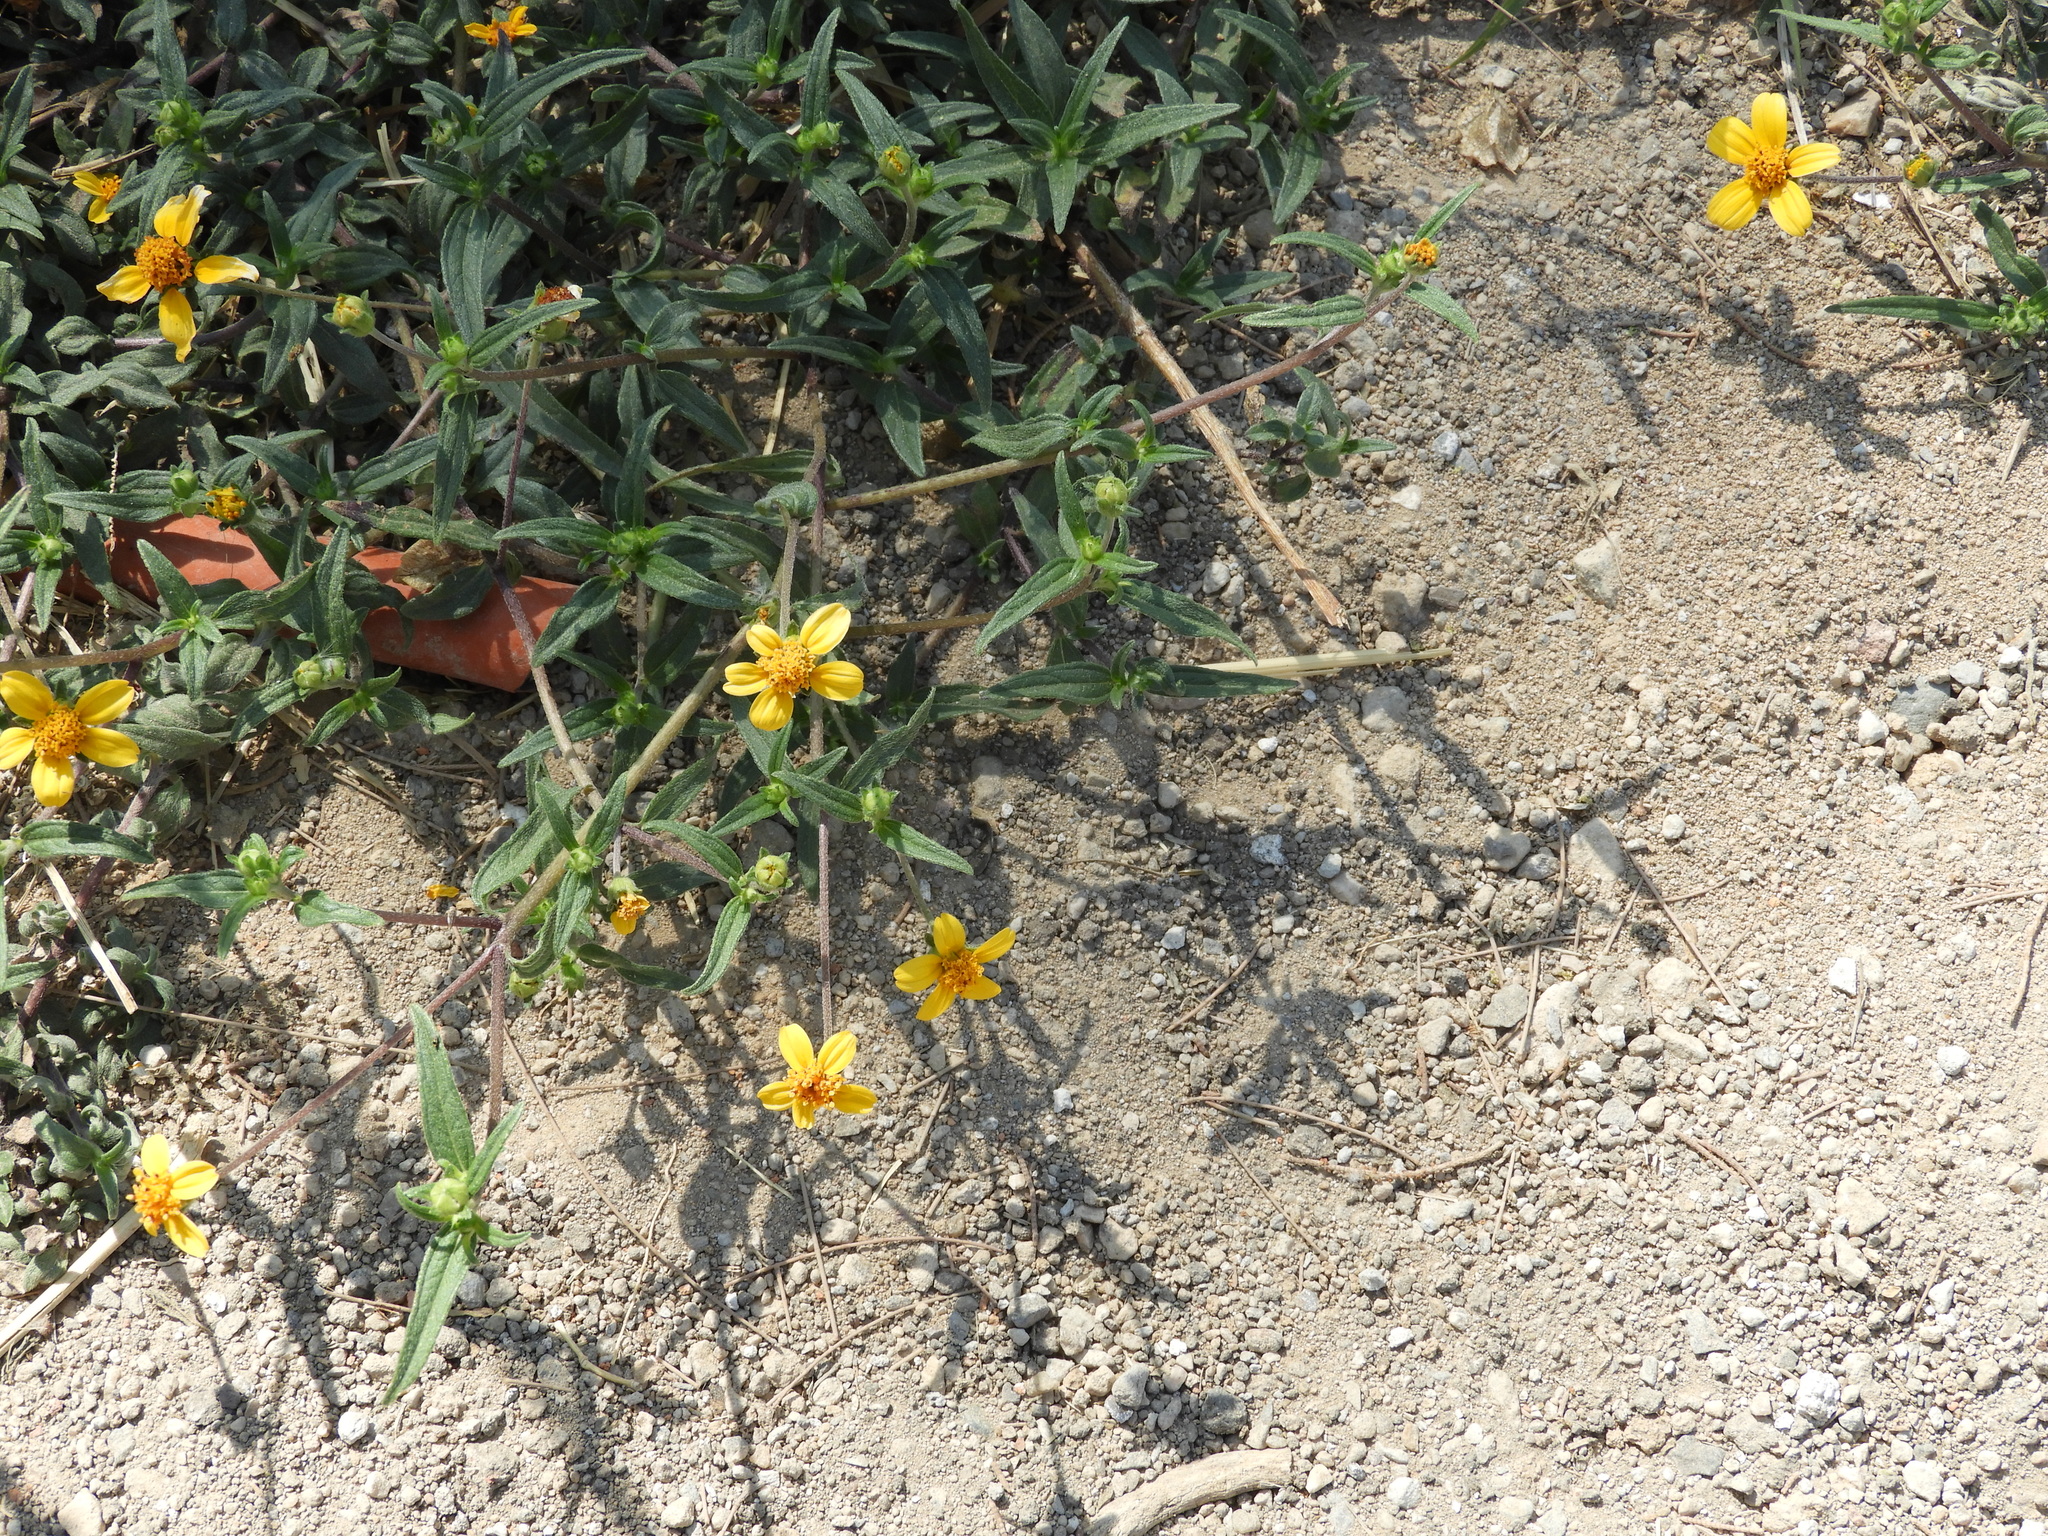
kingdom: Plantae
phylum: Tracheophyta
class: Magnoliopsida
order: Asterales
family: Asteraceae
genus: Aldama
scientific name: Aldama dentata
